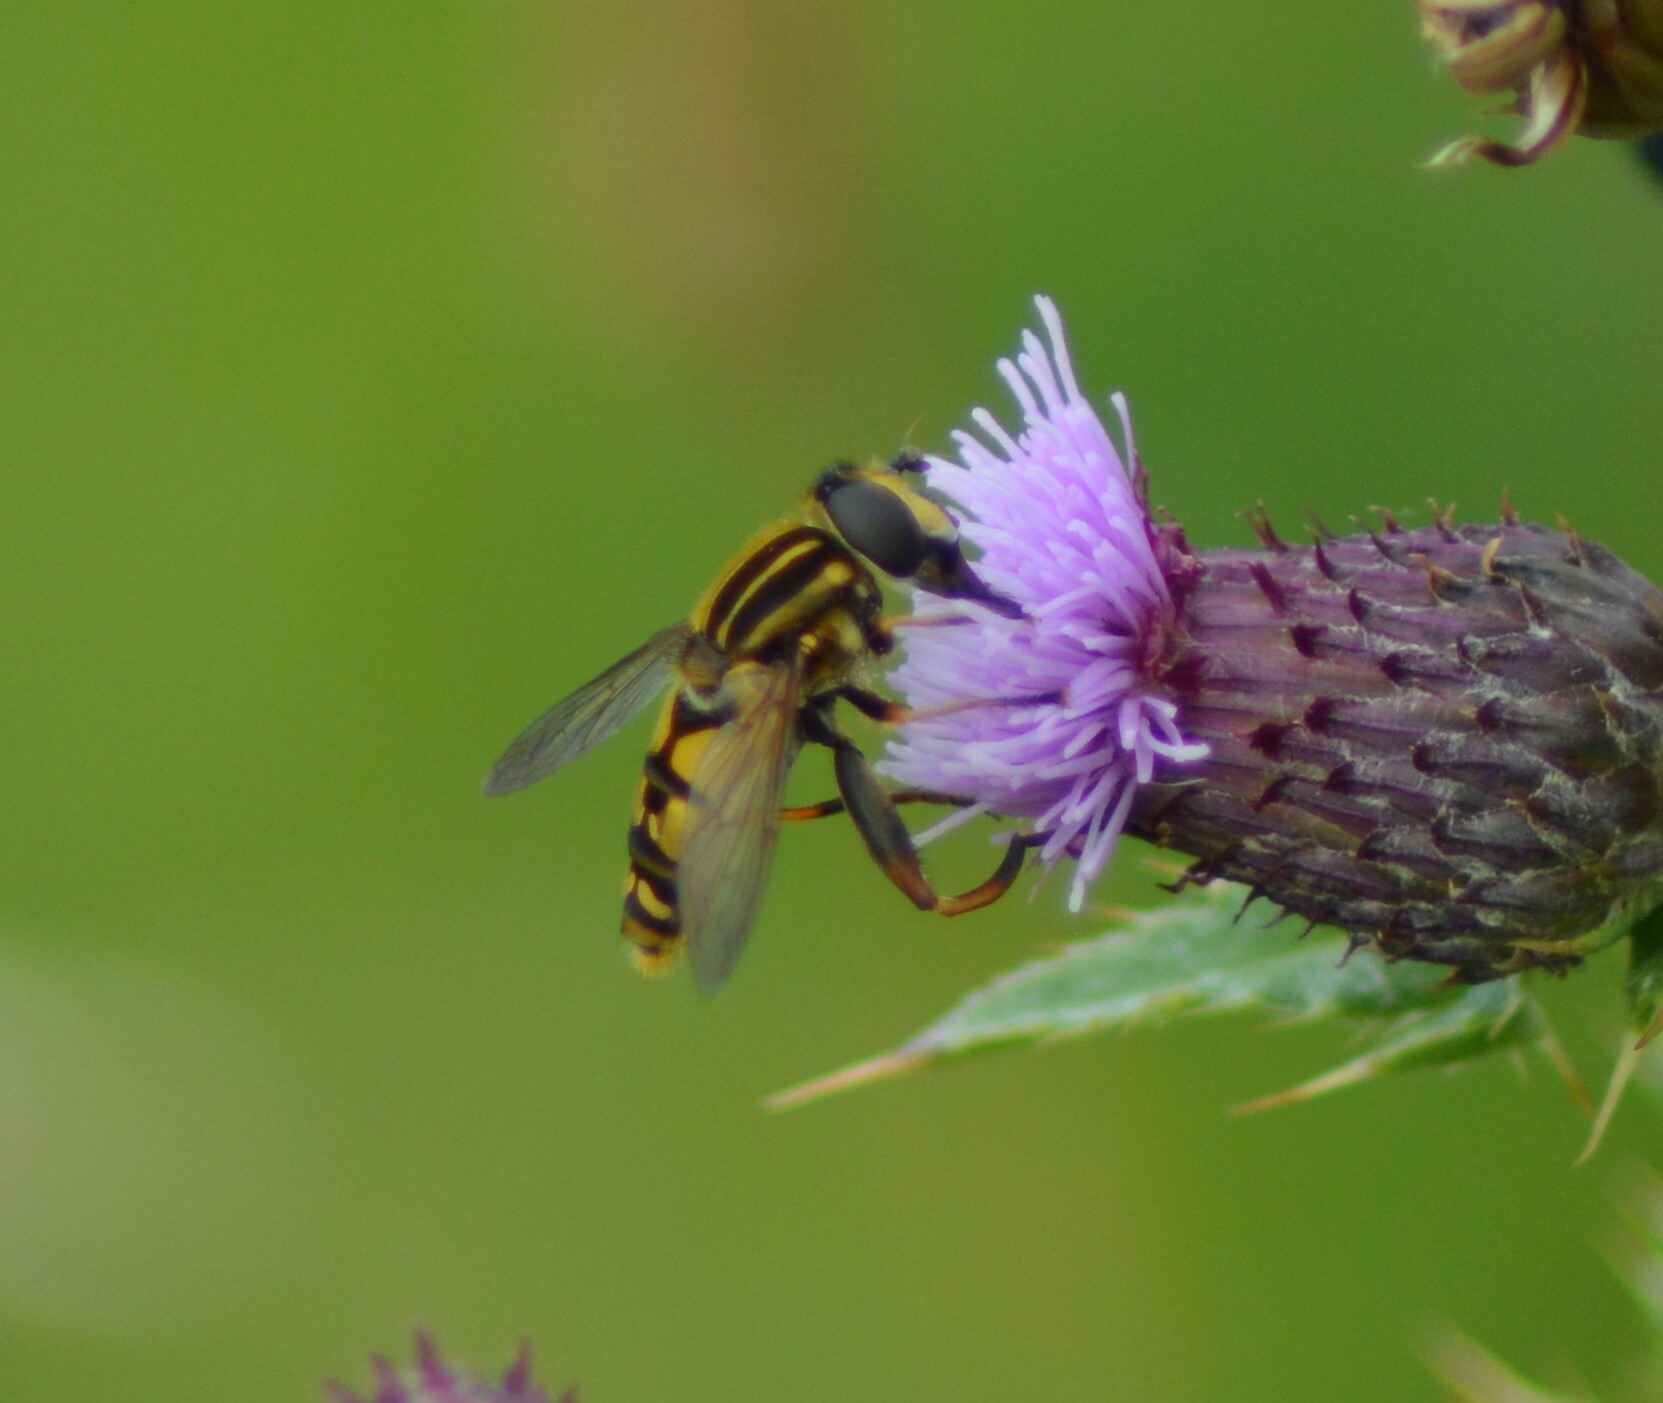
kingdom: Animalia
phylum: Arthropoda
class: Insecta
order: Diptera
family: Syrphidae
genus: Helophilus
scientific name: Helophilus pendulus
